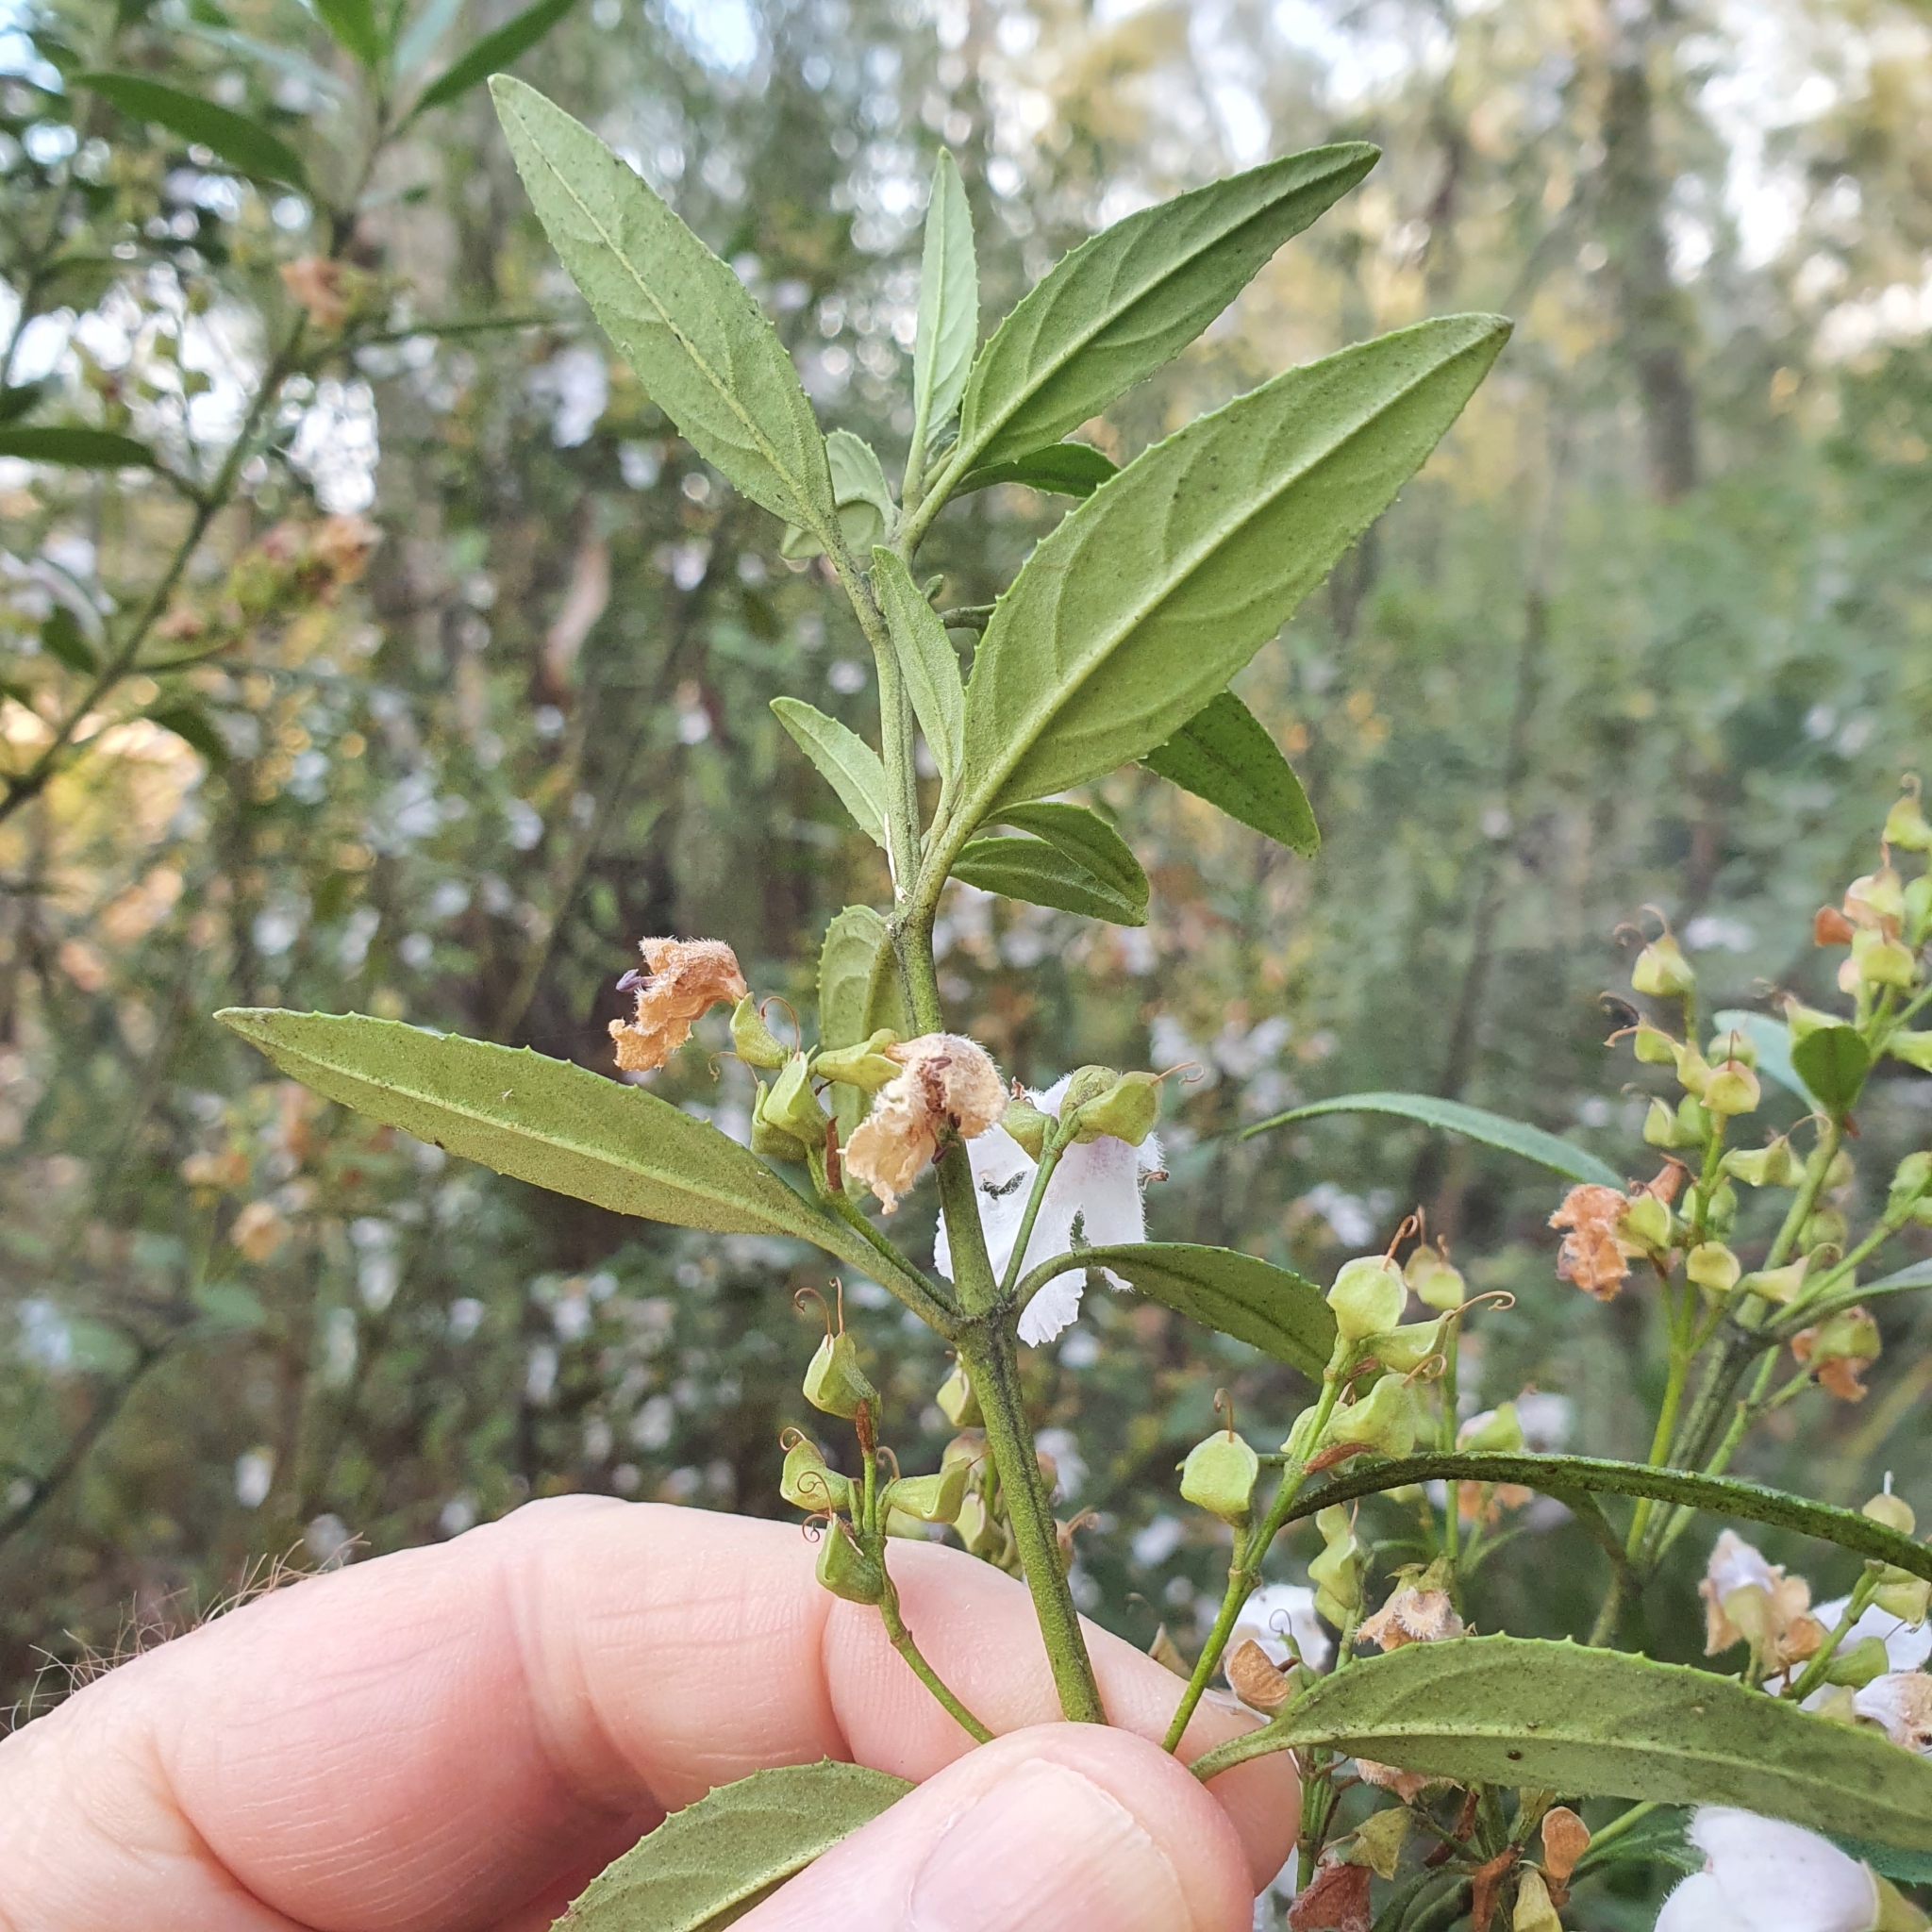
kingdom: Plantae
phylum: Tracheophyta
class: Magnoliopsida
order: Lamiales
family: Lamiaceae
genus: Prostanthera
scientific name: Prostanthera lasianthos
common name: Mountain-lilac
